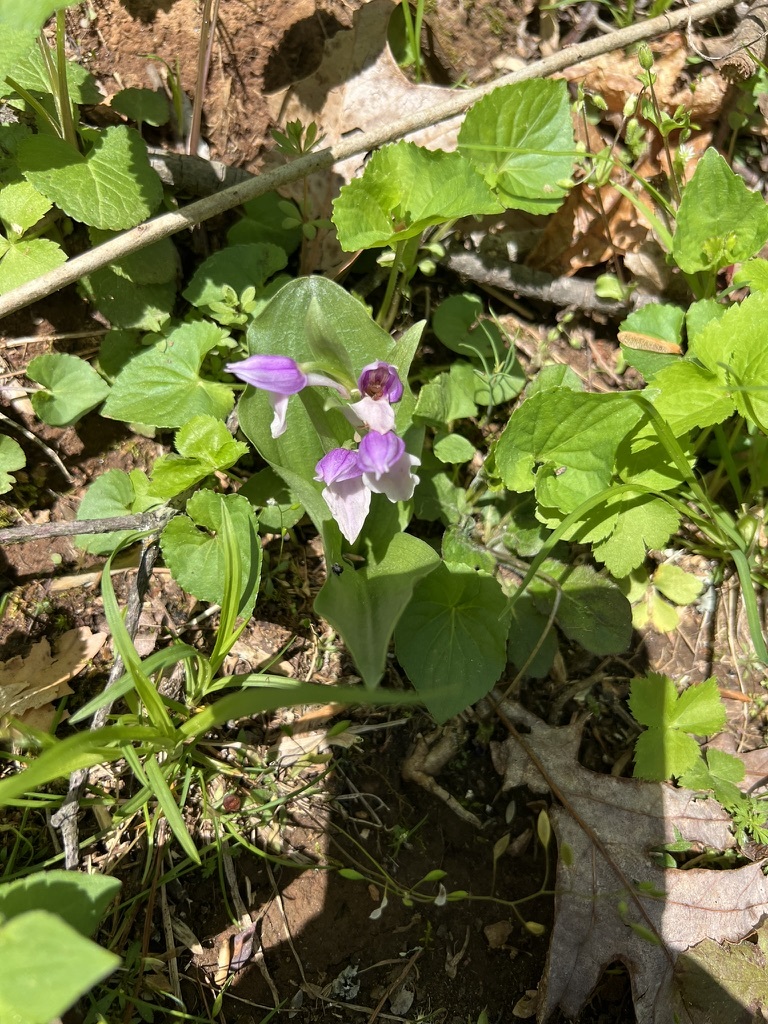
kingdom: Plantae
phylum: Tracheophyta
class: Liliopsida
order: Asparagales
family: Orchidaceae
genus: Galearis
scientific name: Galearis spectabilis
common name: Purple-hooded orchis
